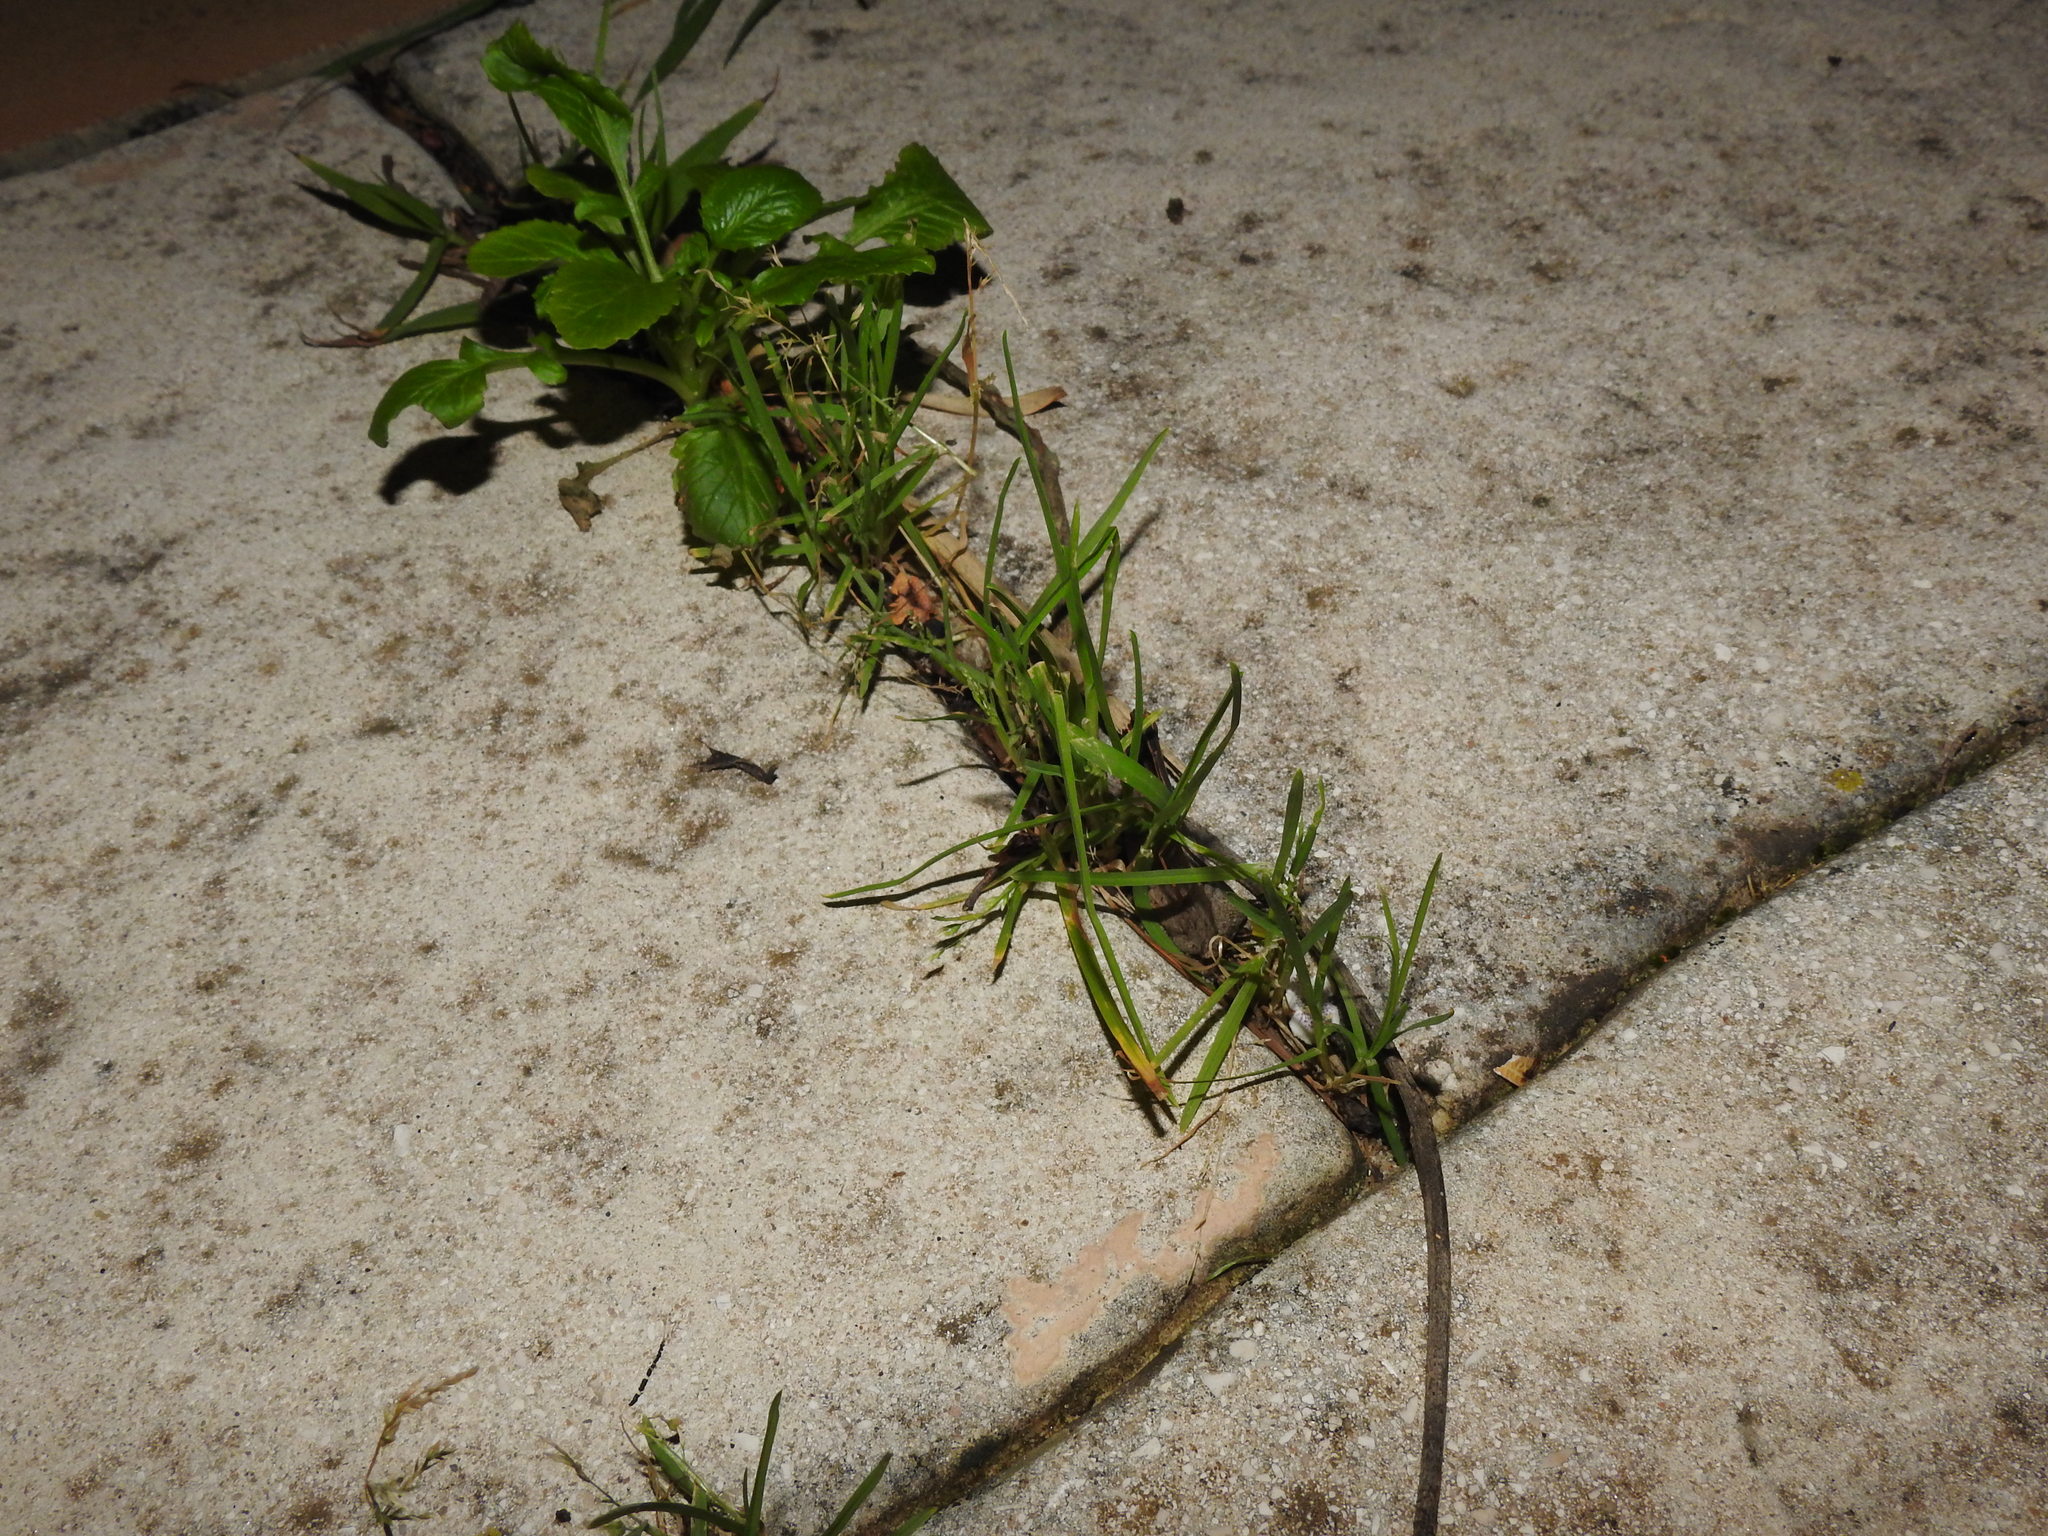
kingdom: Plantae
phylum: Tracheophyta
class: Liliopsida
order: Poales
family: Poaceae
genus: Poa
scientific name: Poa annua
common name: Annual bluegrass
